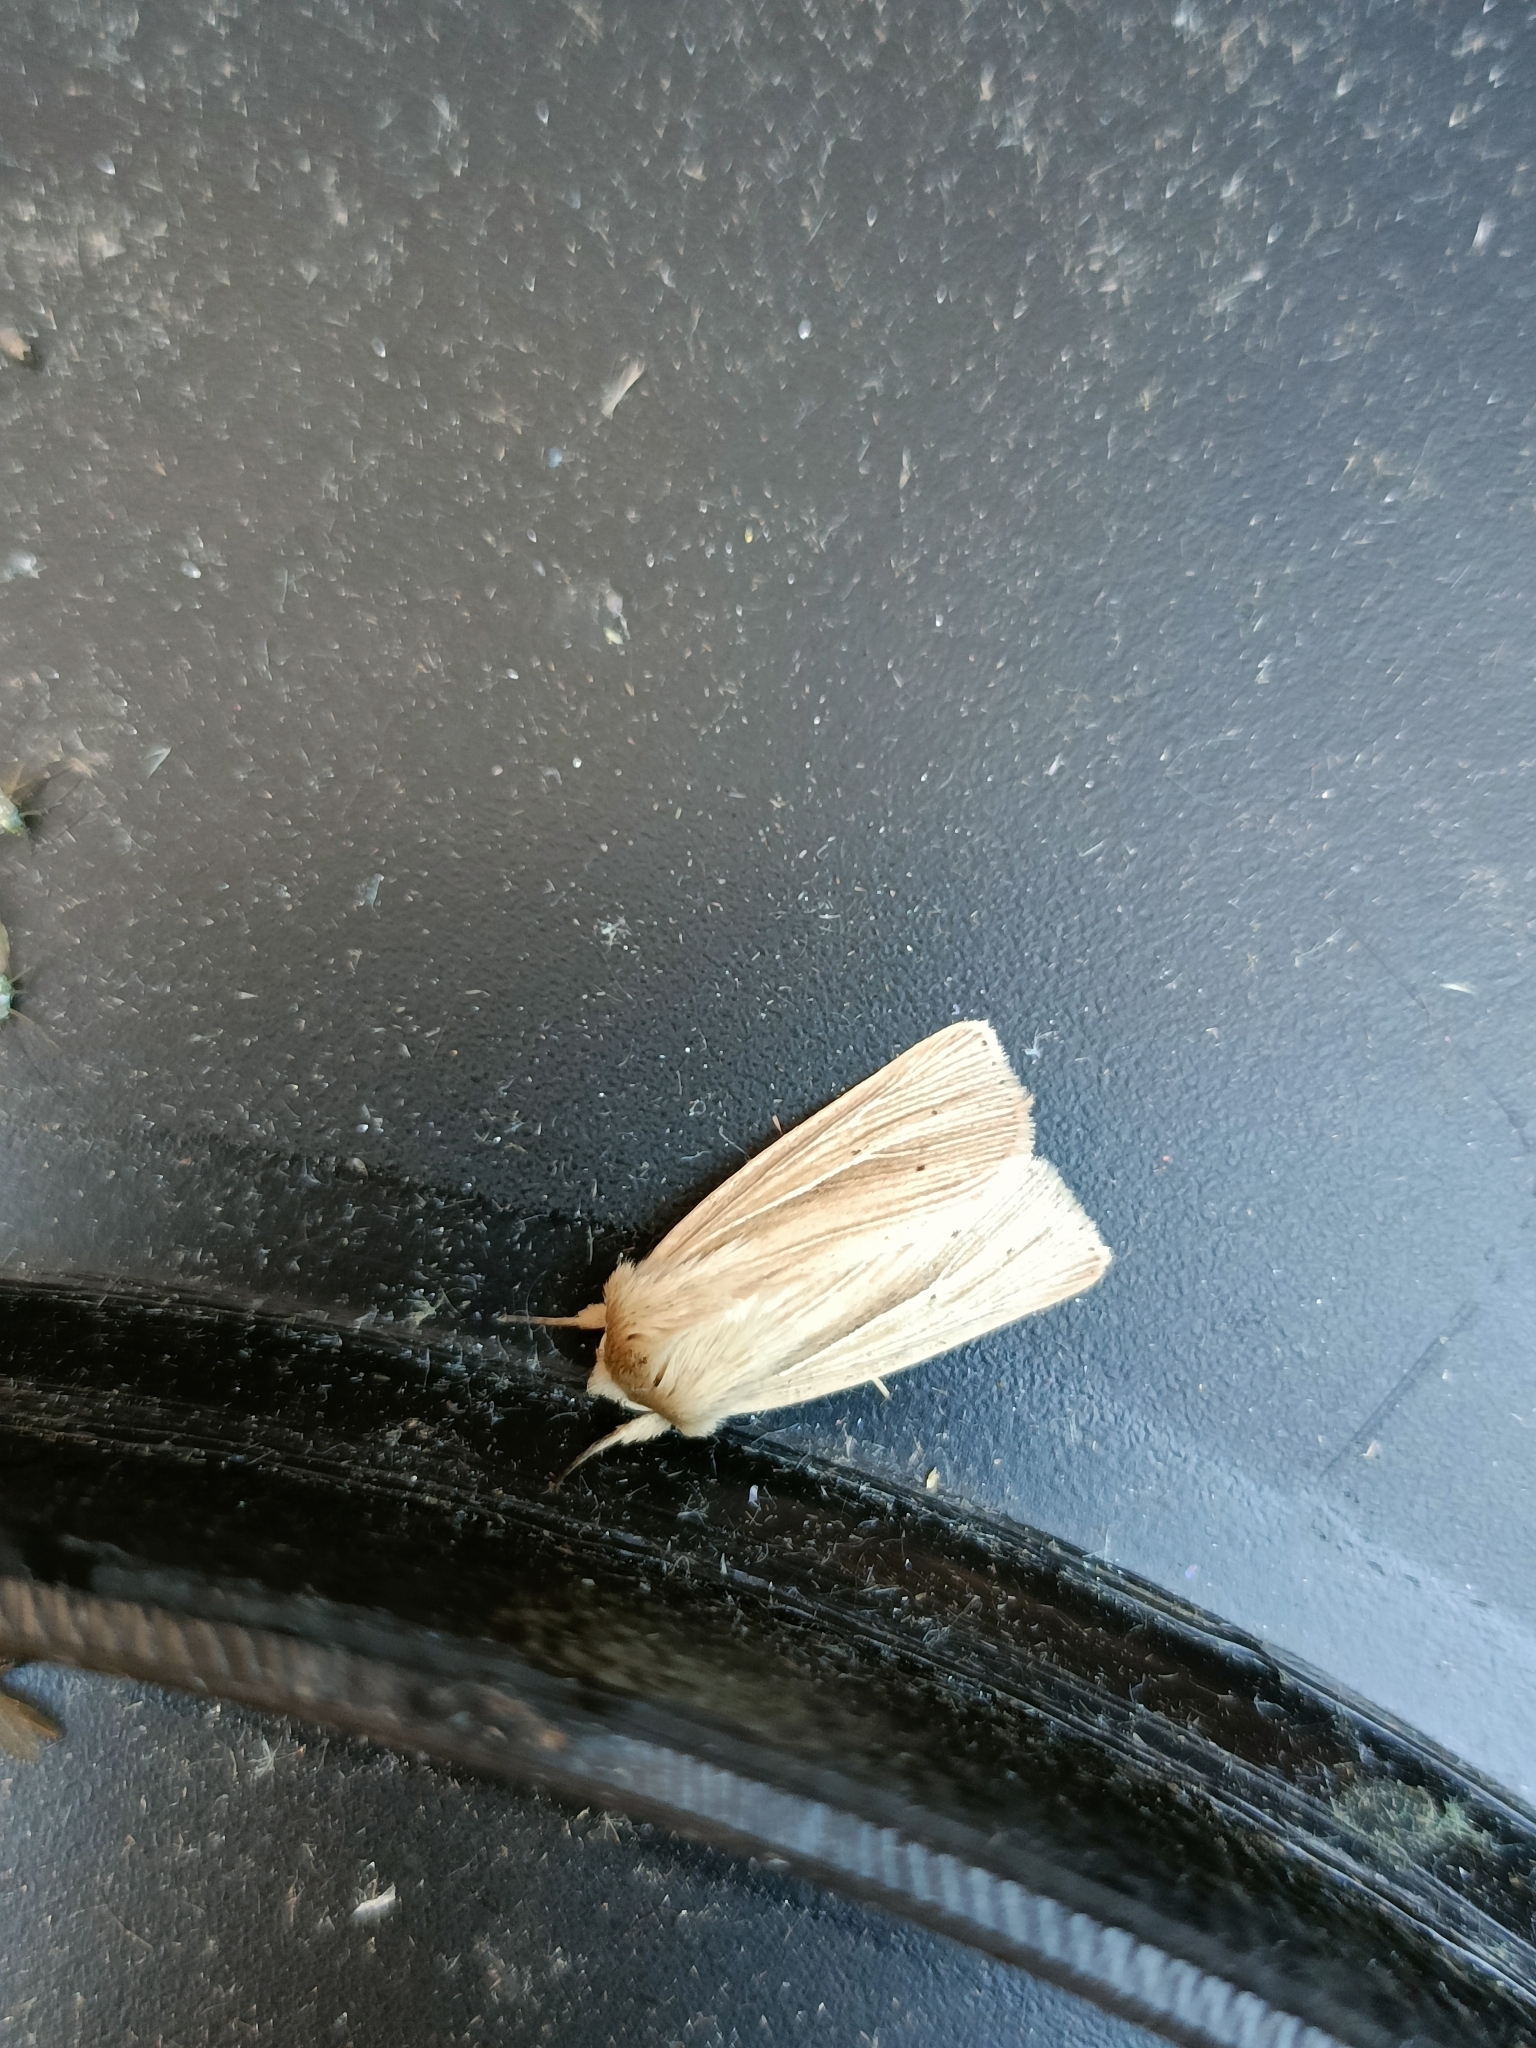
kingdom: Animalia
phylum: Arthropoda
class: Insecta
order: Lepidoptera
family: Noctuidae
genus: Mythimna
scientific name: Mythimna impura
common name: Smoky wainscot
